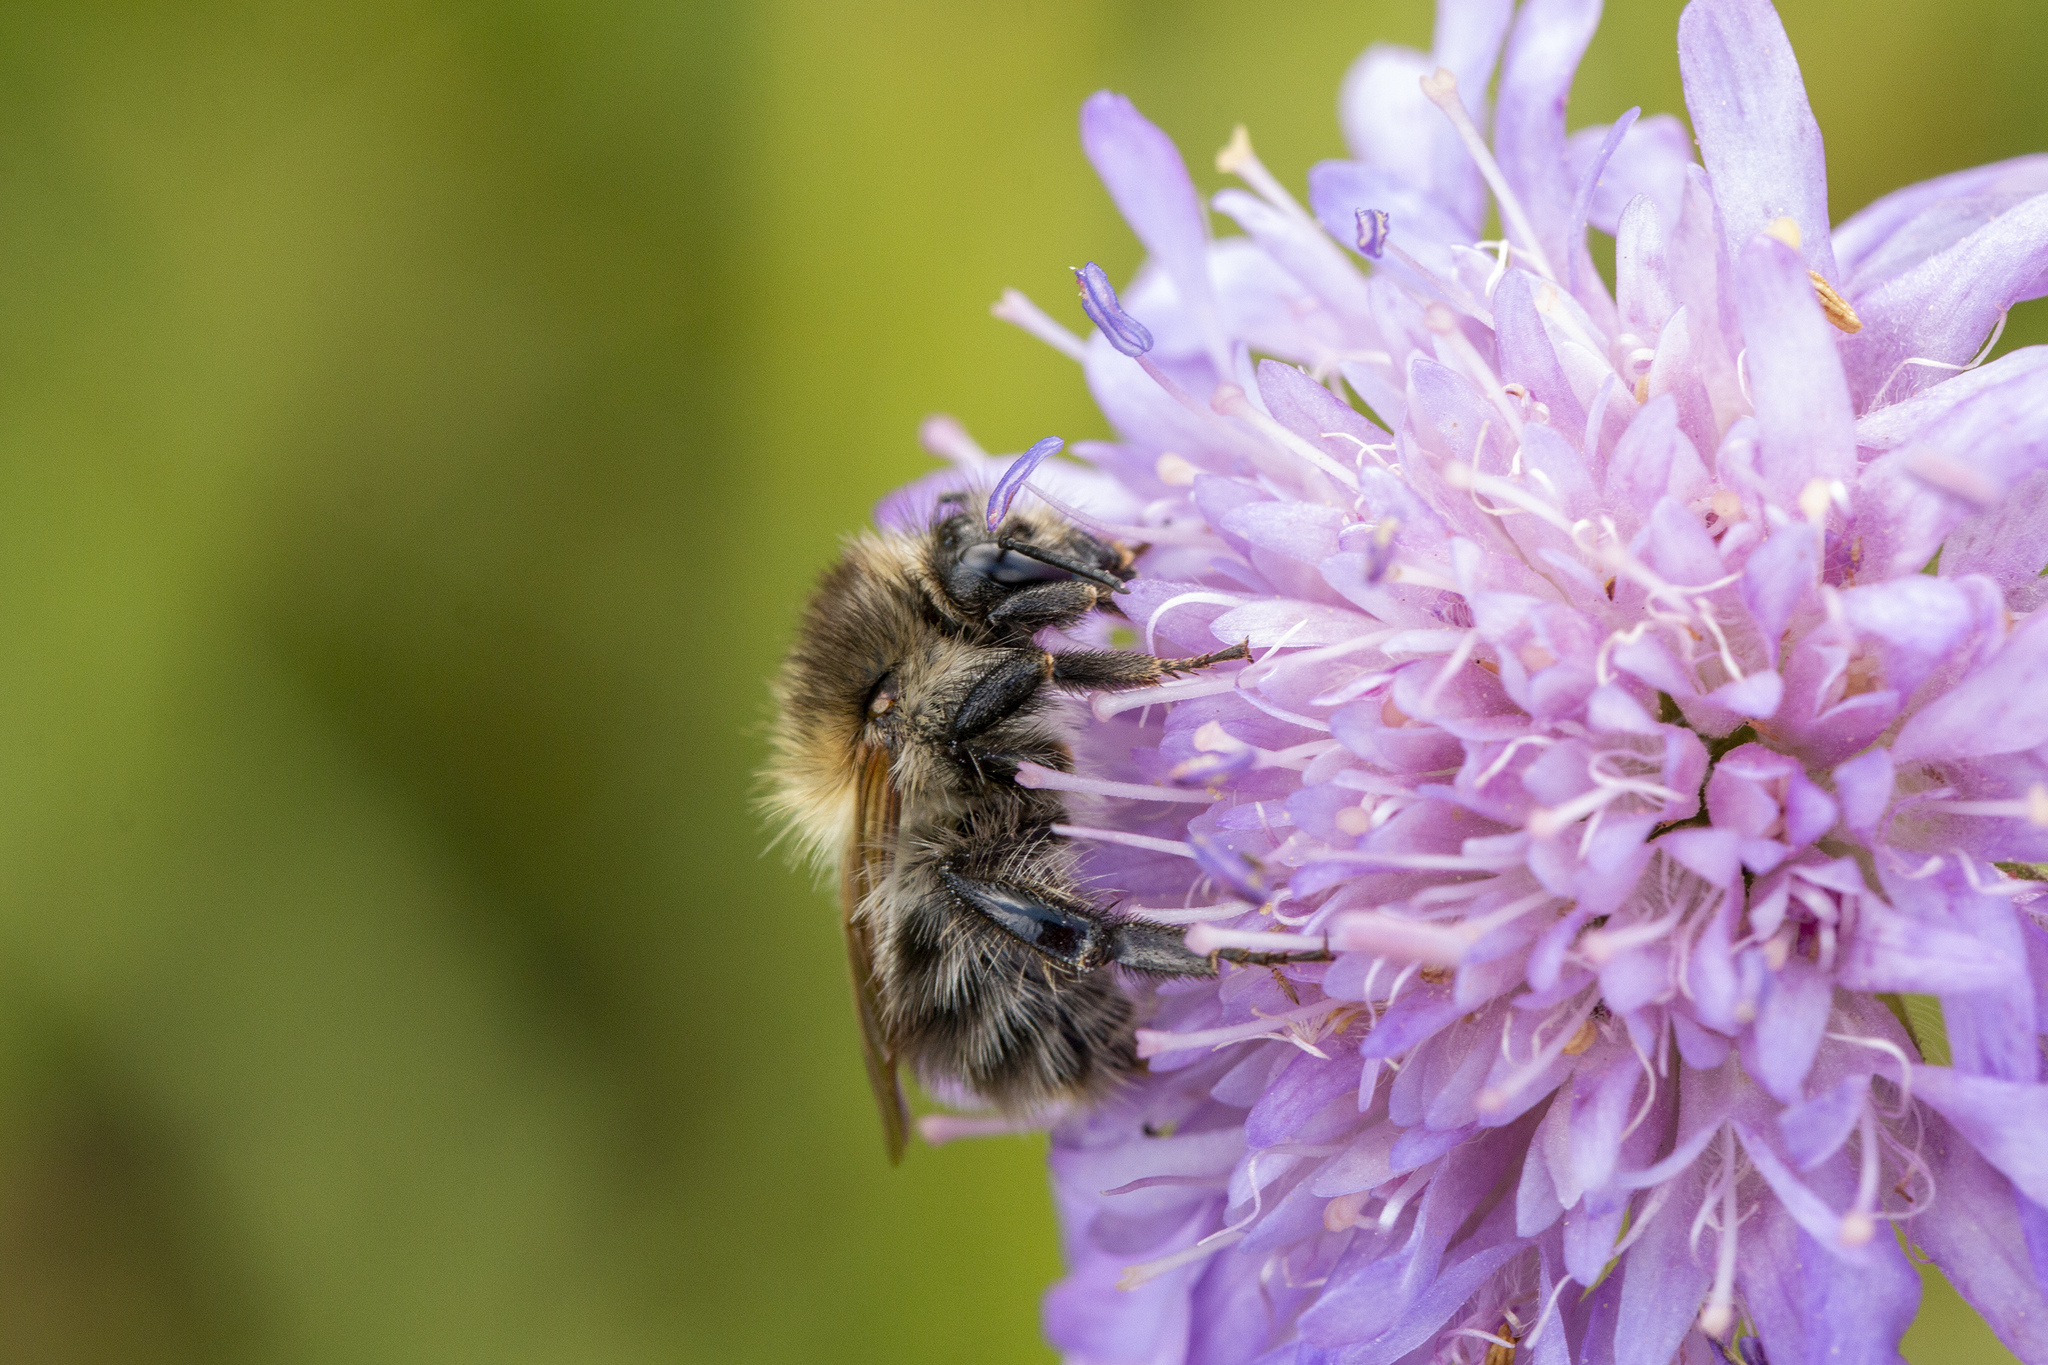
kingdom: Animalia
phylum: Arthropoda
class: Insecta
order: Hymenoptera
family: Apidae
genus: Bombus
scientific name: Bombus pascuorum
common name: Common carder bee
